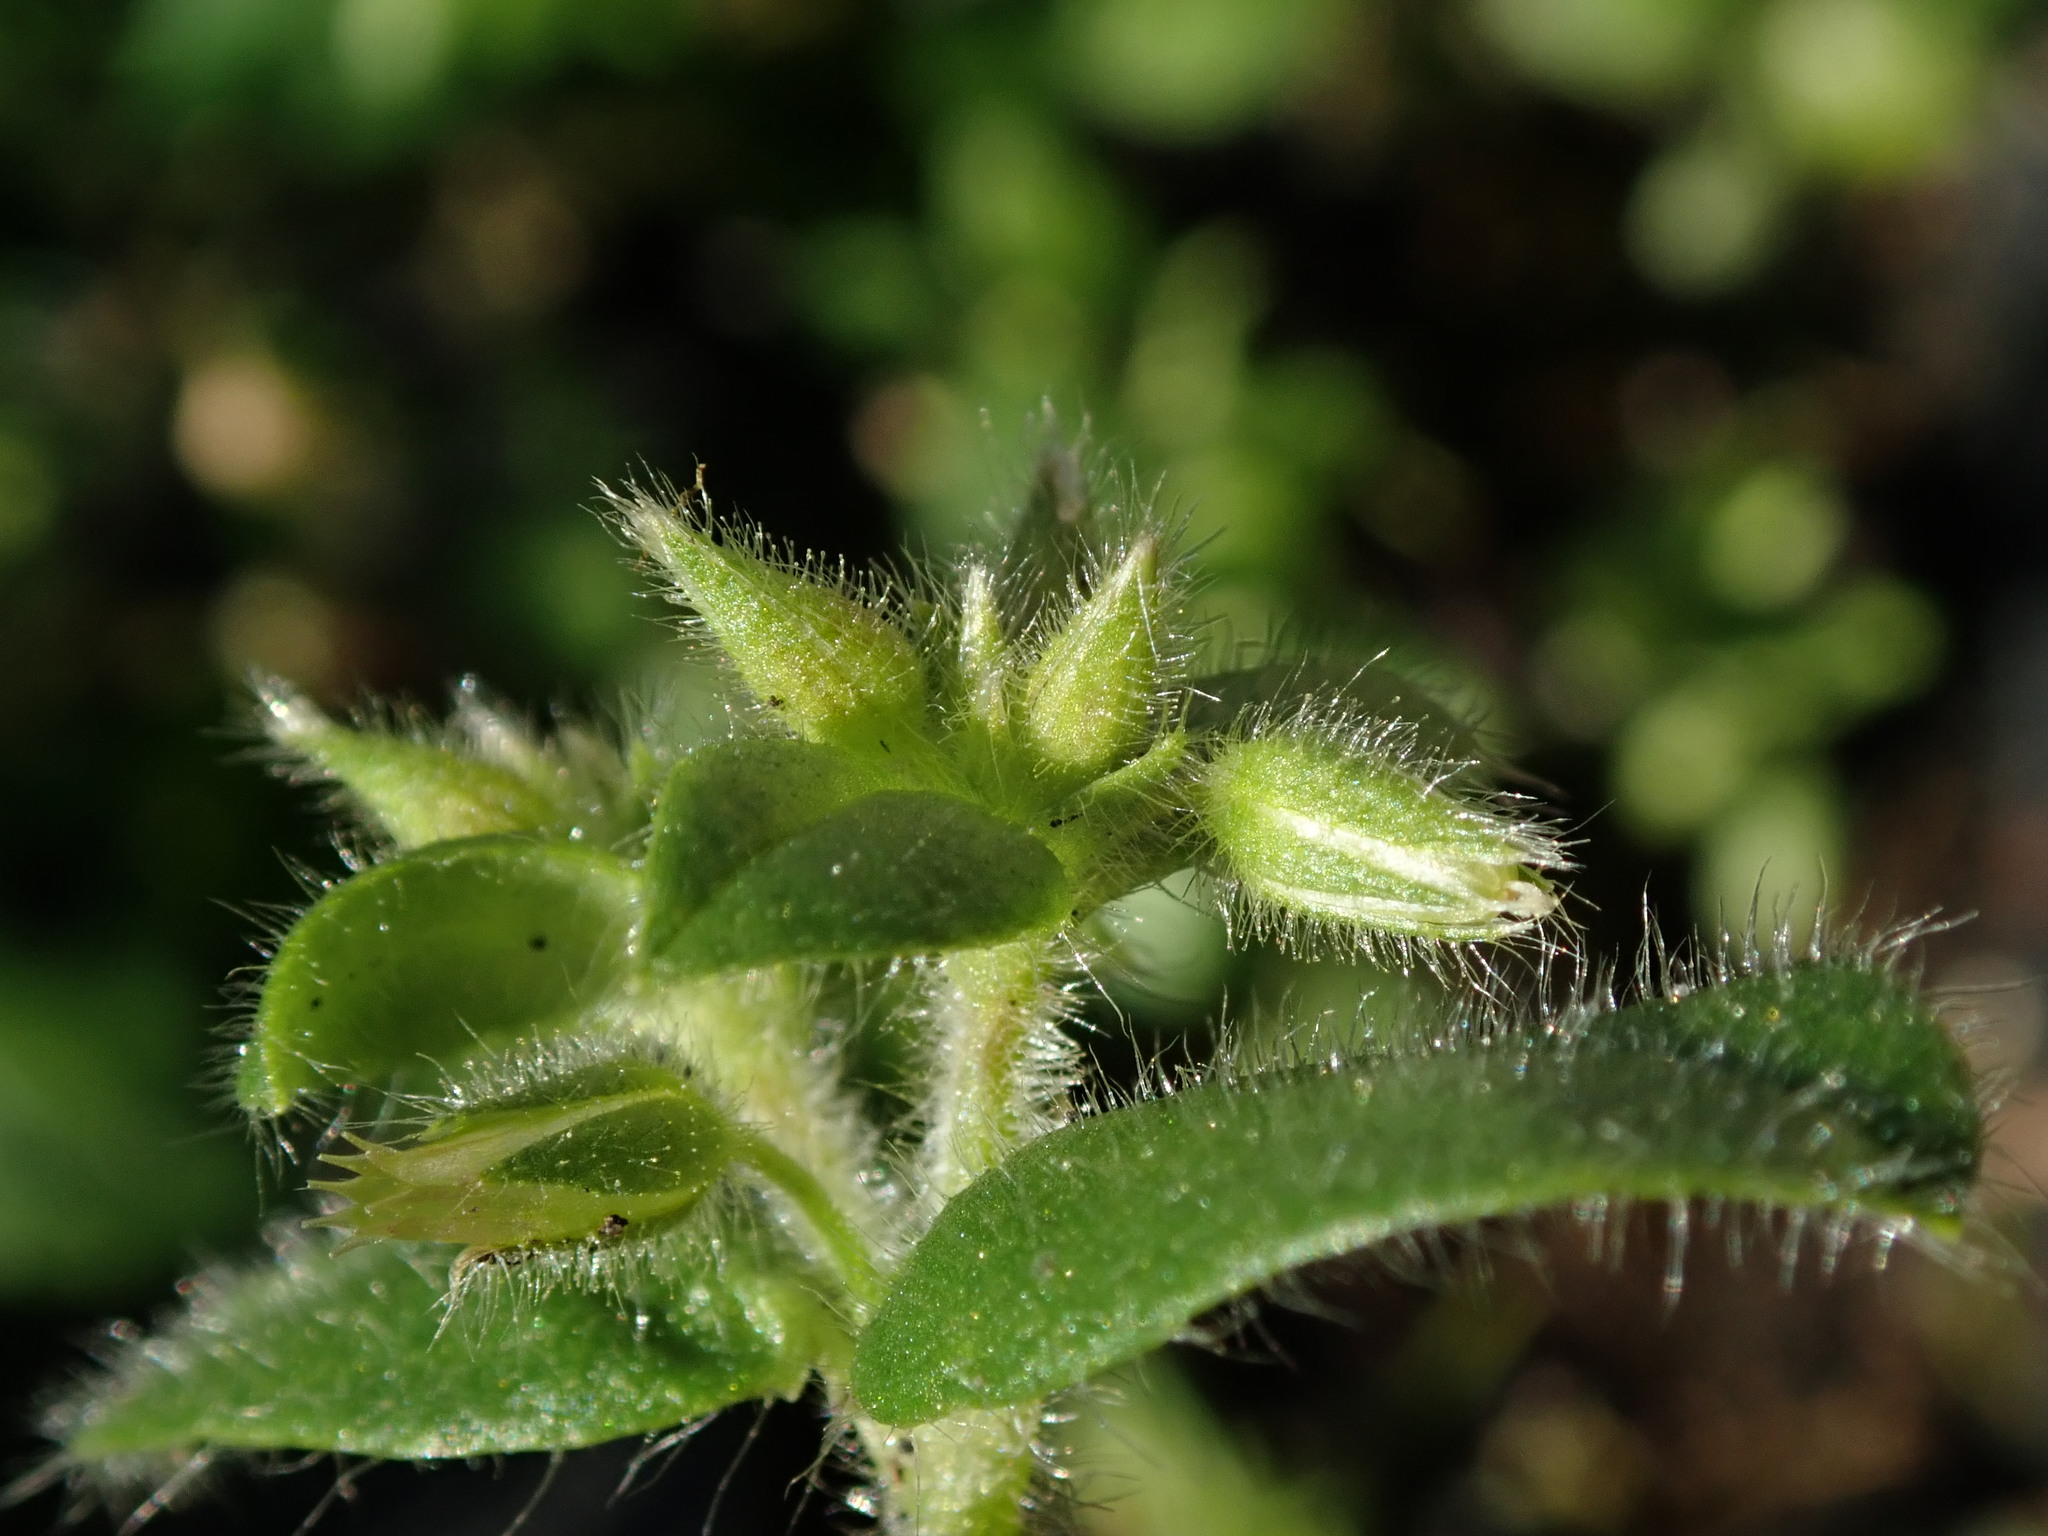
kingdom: Plantae
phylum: Tracheophyta
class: Magnoliopsida
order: Caryophyllales
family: Caryophyllaceae
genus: Cerastium
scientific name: Cerastium glomeratum
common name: Sticky chickweed
